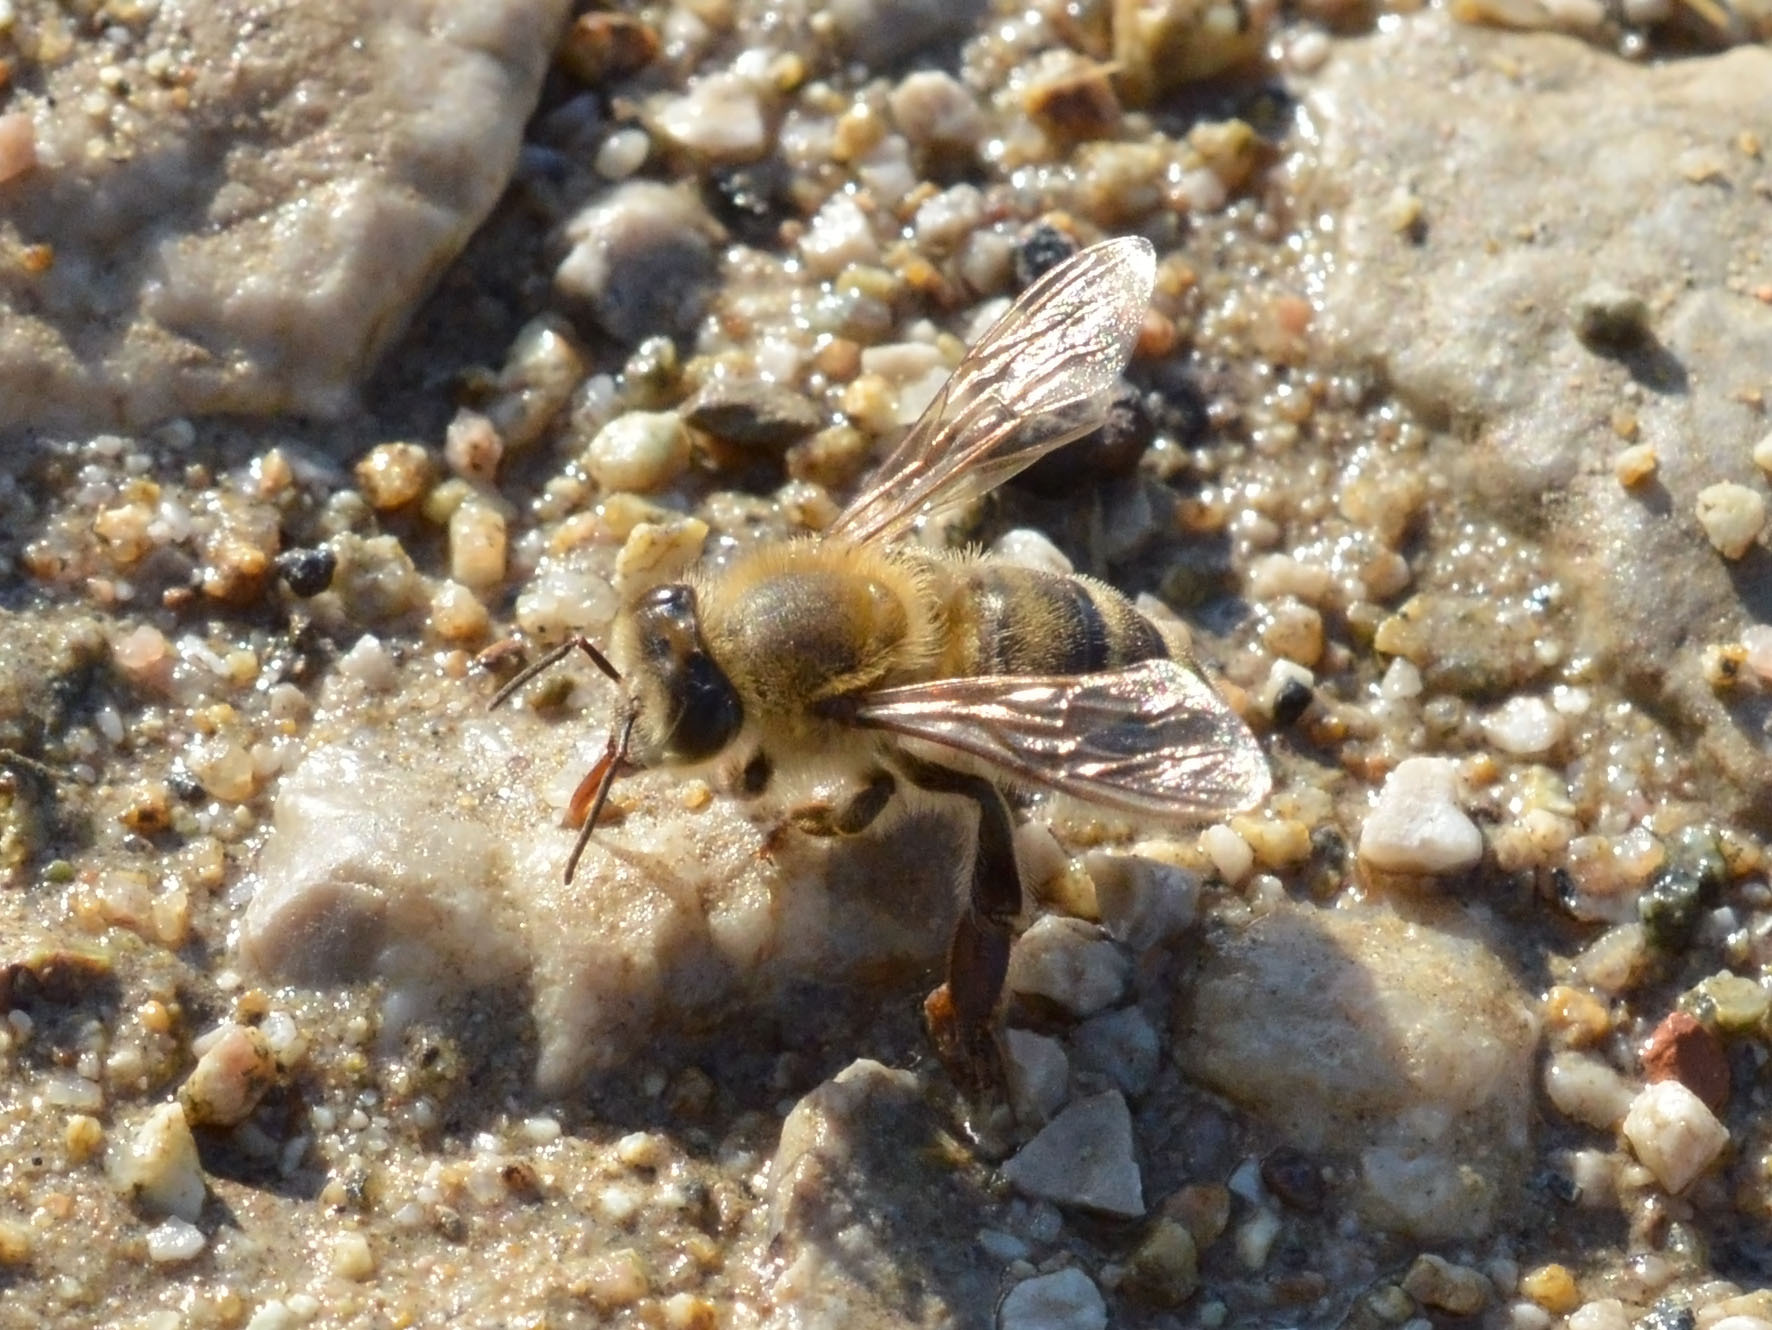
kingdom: Animalia
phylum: Arthropoda
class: Insecta
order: Hymenoptera
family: Apidae
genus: Apis
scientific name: Apis mellifera
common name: Honey bee
